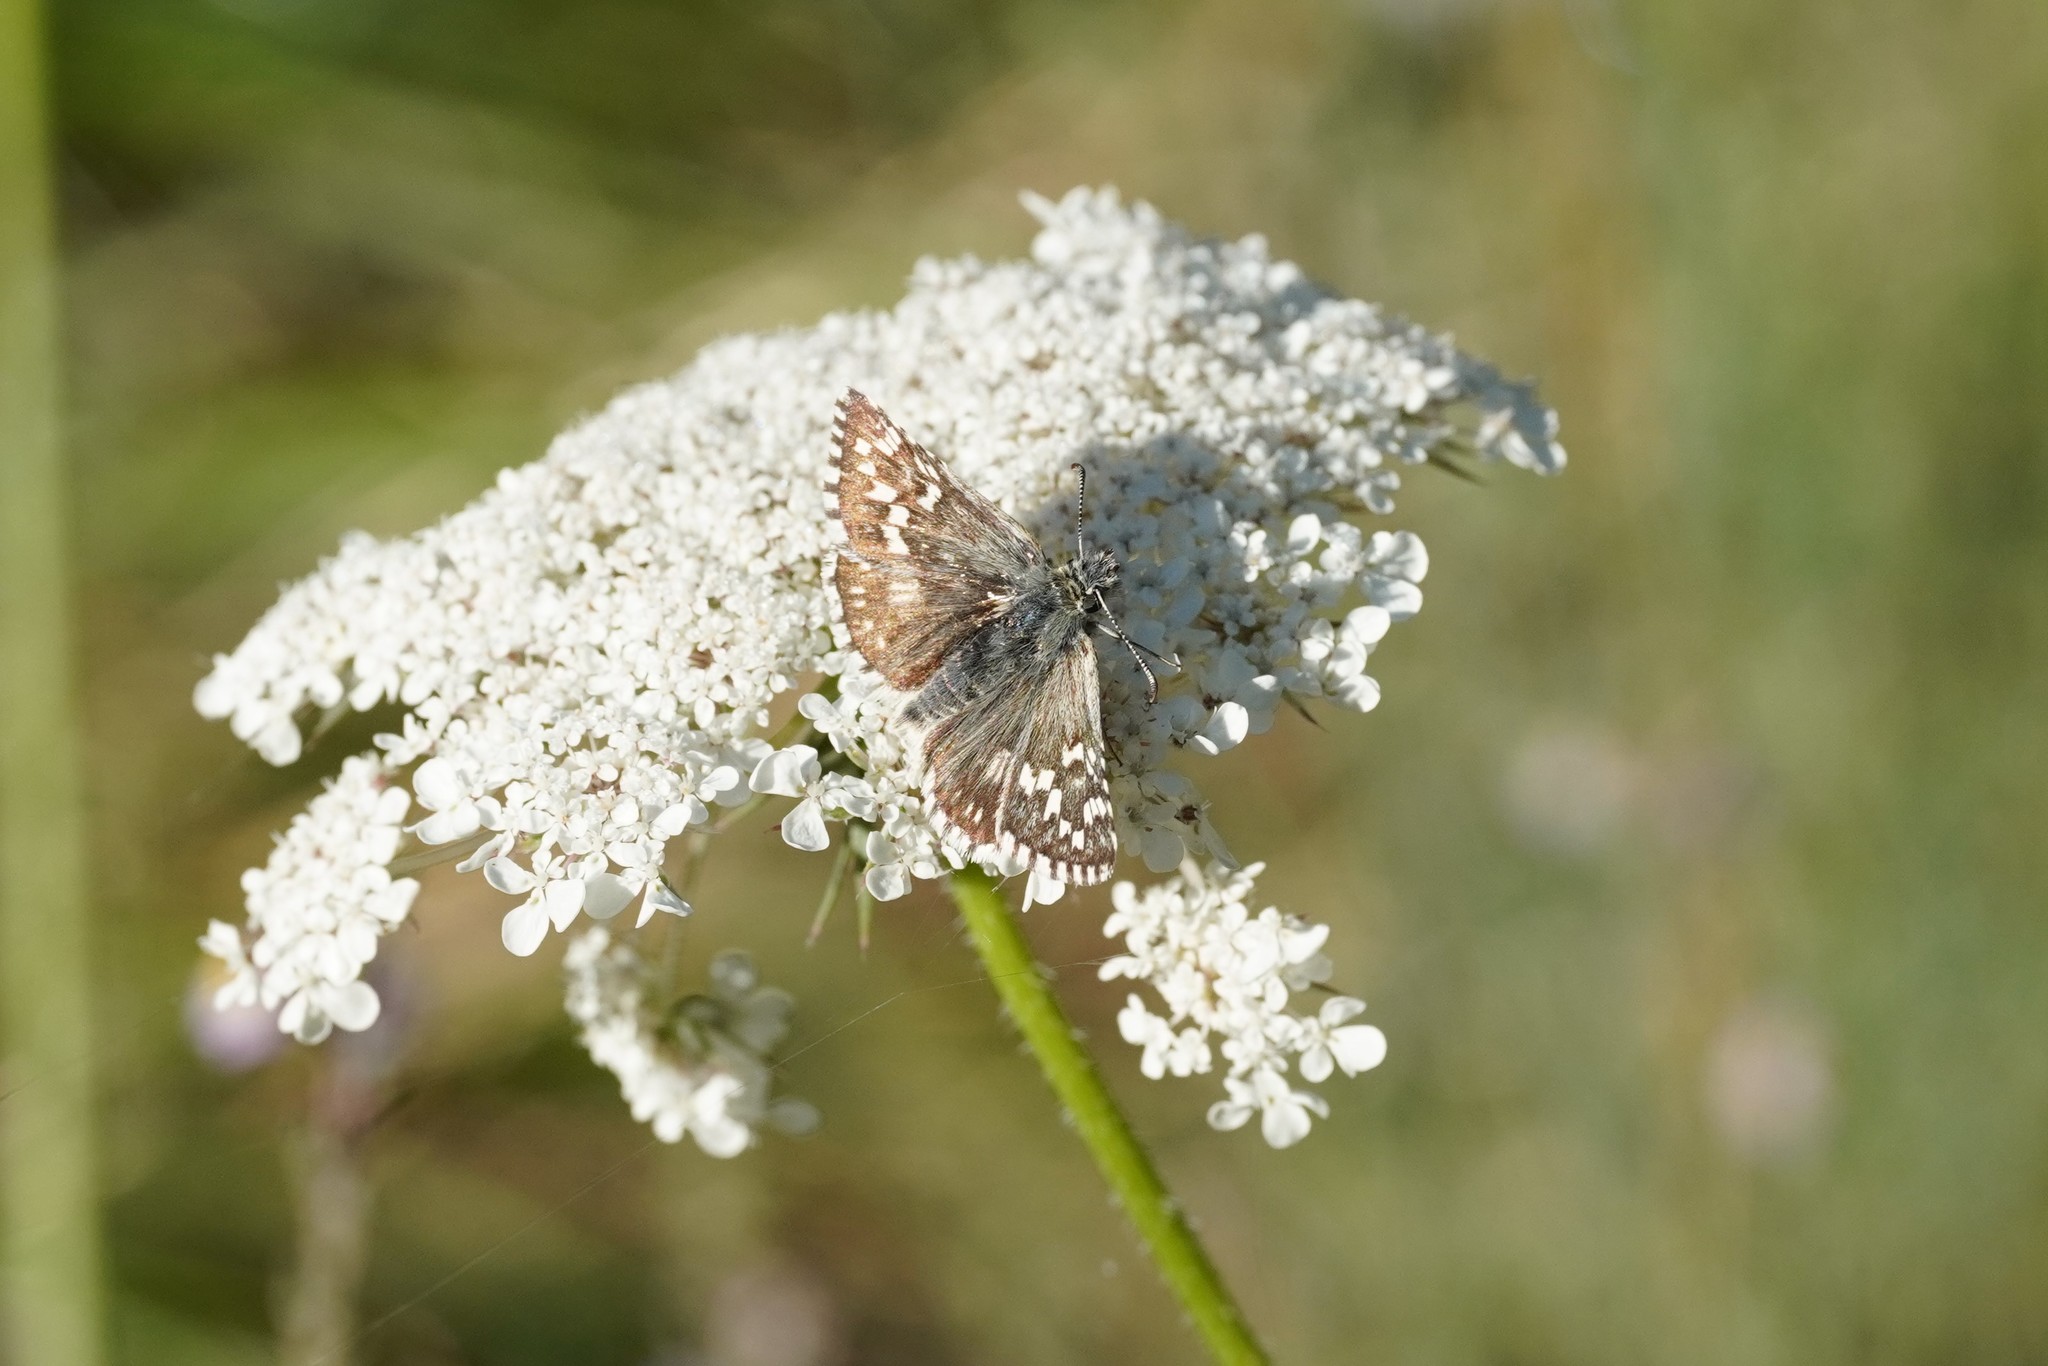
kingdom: Animalia
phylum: Arthropoda
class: Insecta
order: Lepidoptera
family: Hesperiidae
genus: Pyrgus
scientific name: Pyrgus fritillarius
